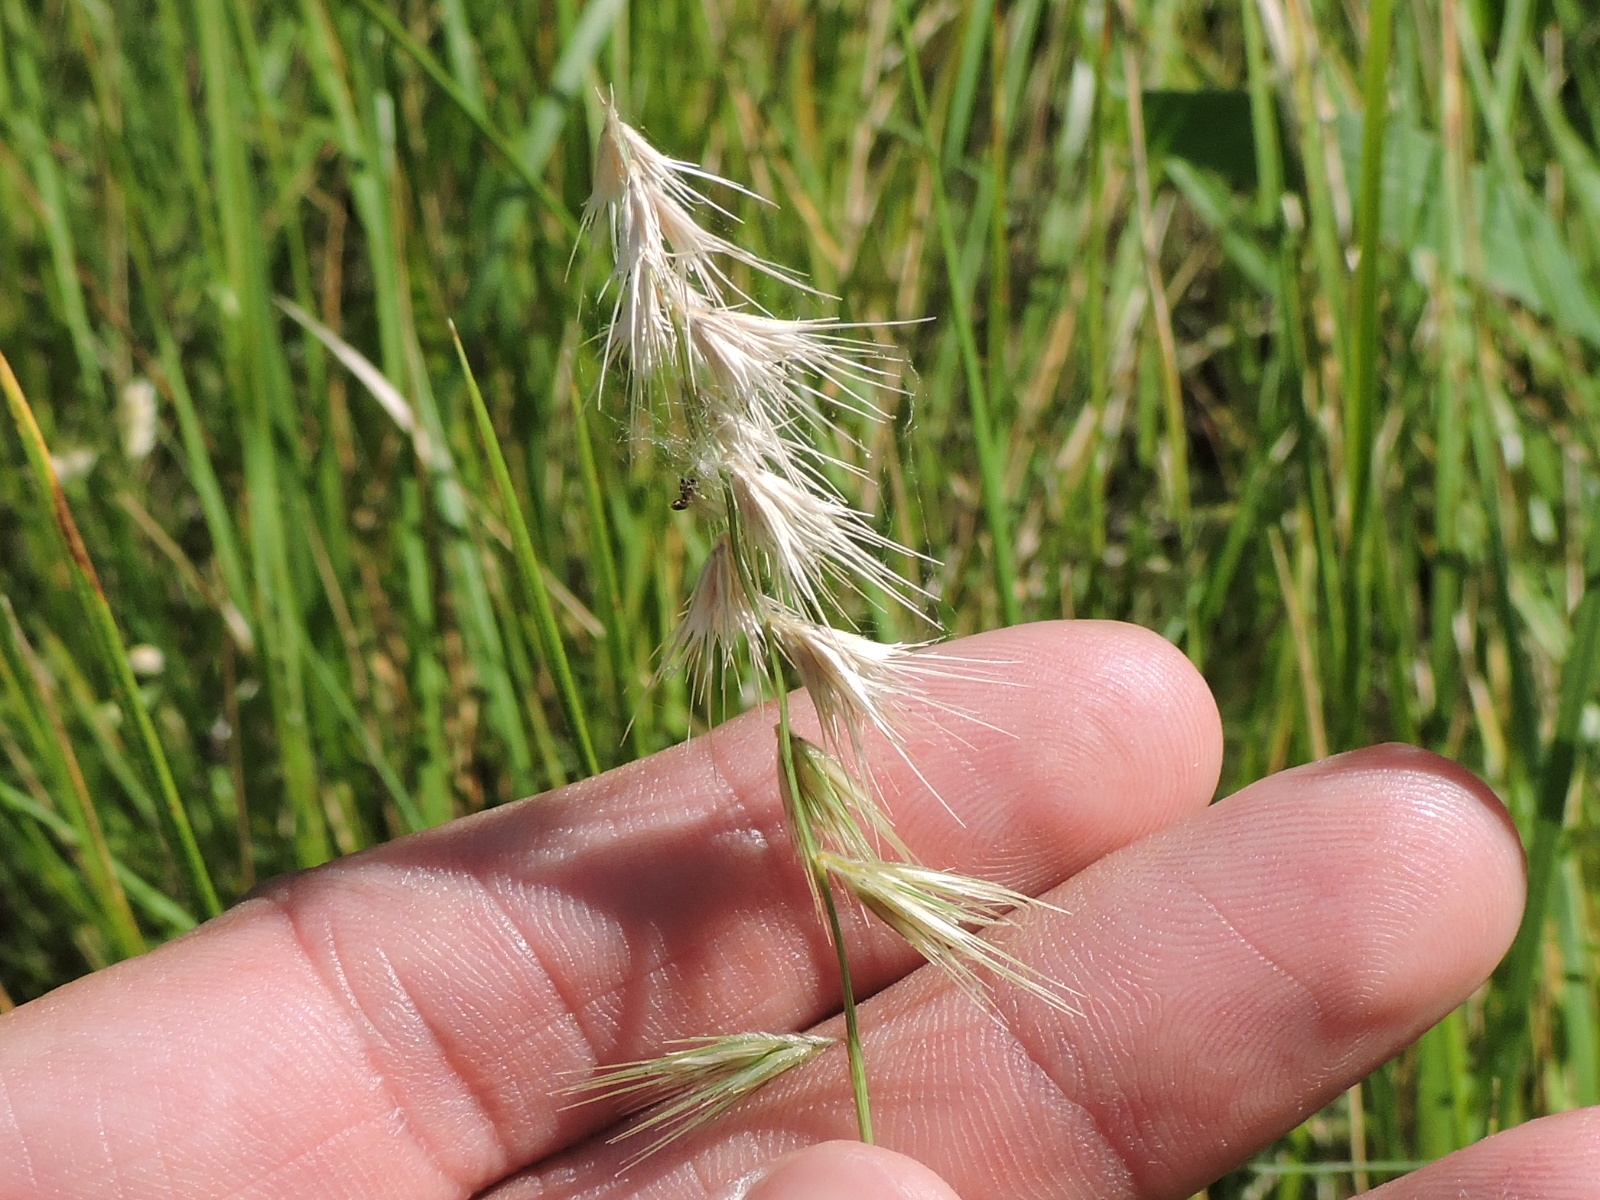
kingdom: Plantae
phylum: Tracheophyta
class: Liliopsida
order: Poales
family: Poaceae
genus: Bouteloua
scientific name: Bouteloua rigidiseta
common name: Texas grama
